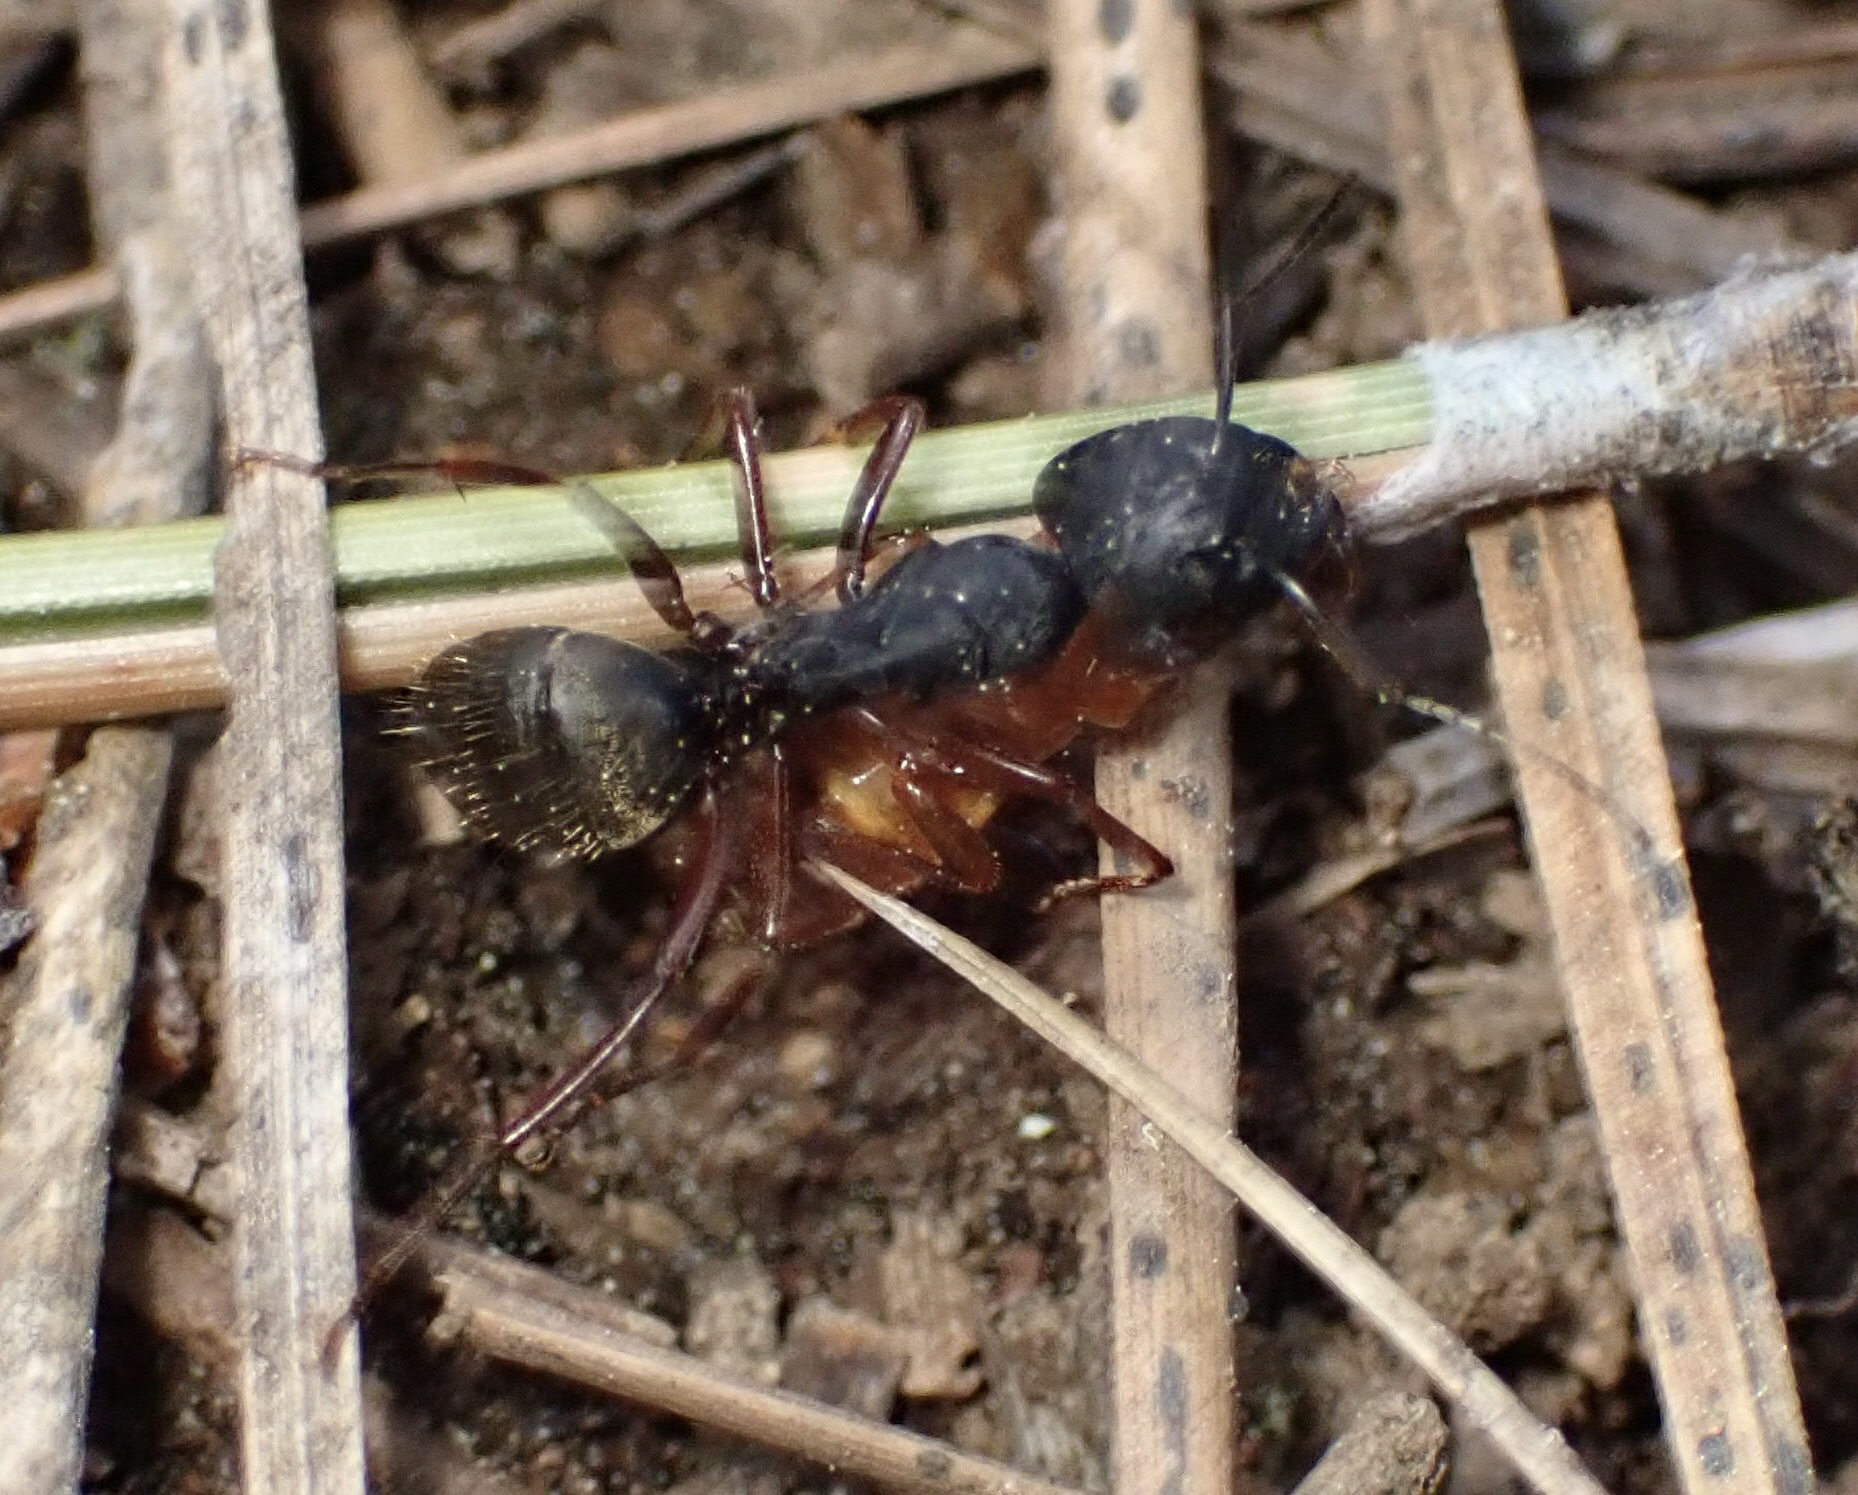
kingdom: Animalia
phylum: Arthropoda
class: Insecta
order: Hymenoptera
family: Formicidae
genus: Camponotus
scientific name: Camponotus modoc
